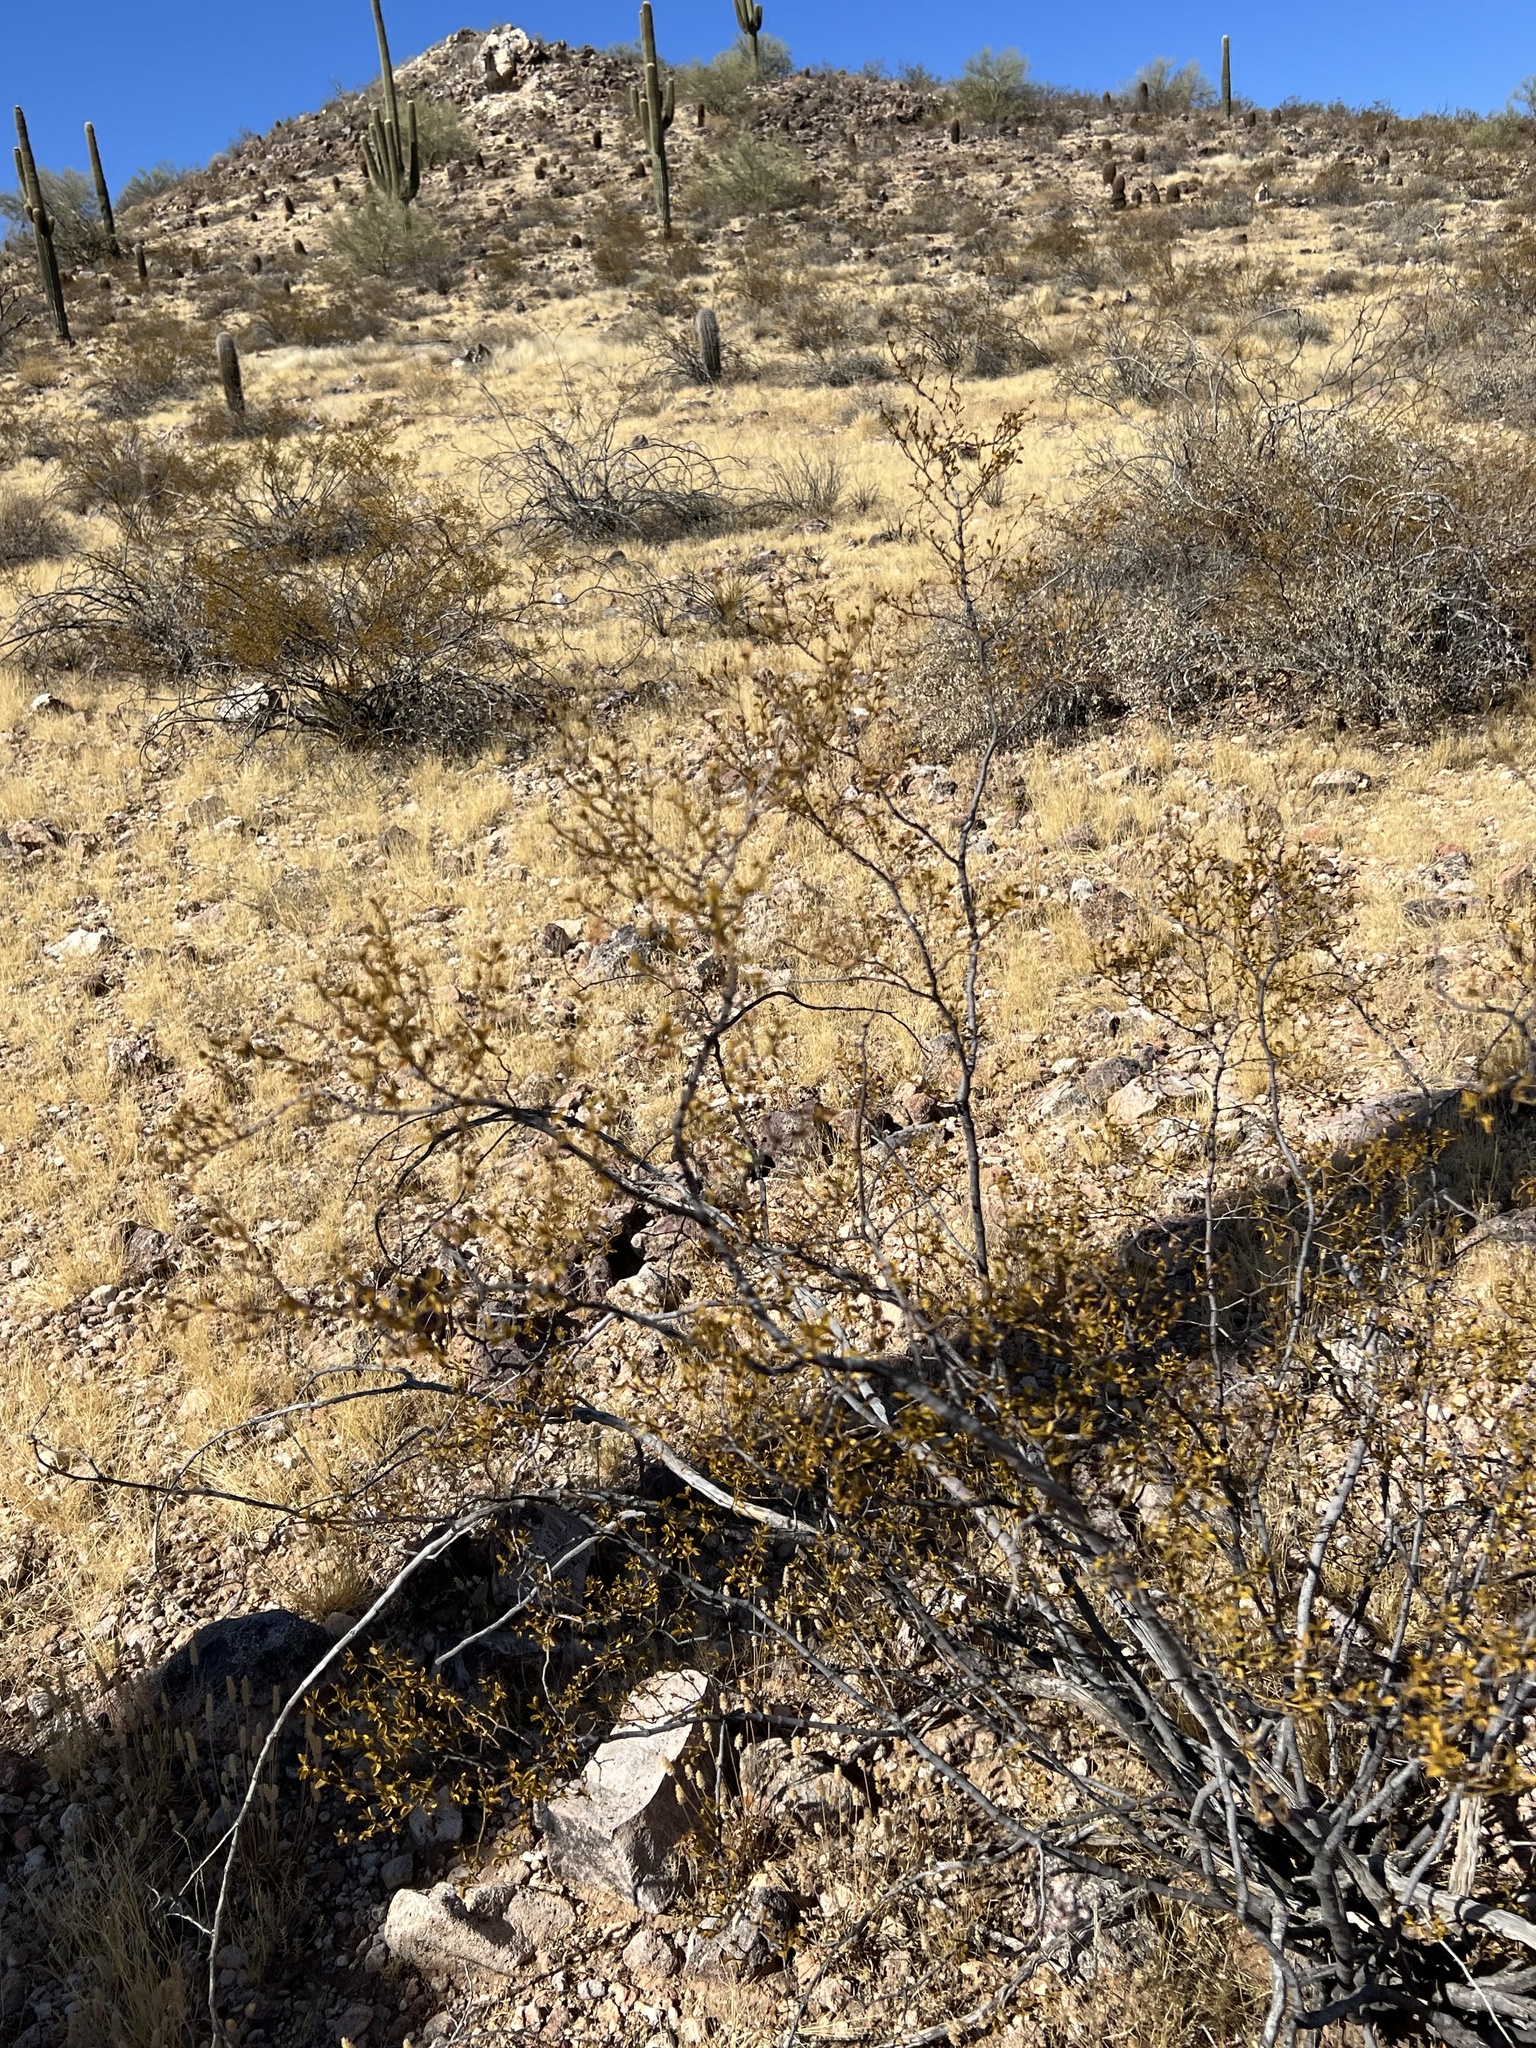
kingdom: Plantae
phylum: Tracheophyta
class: Magnoliopsida
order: Zygophyllales
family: Zygophyllaceae
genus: Larrea
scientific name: Larrea tridentata
